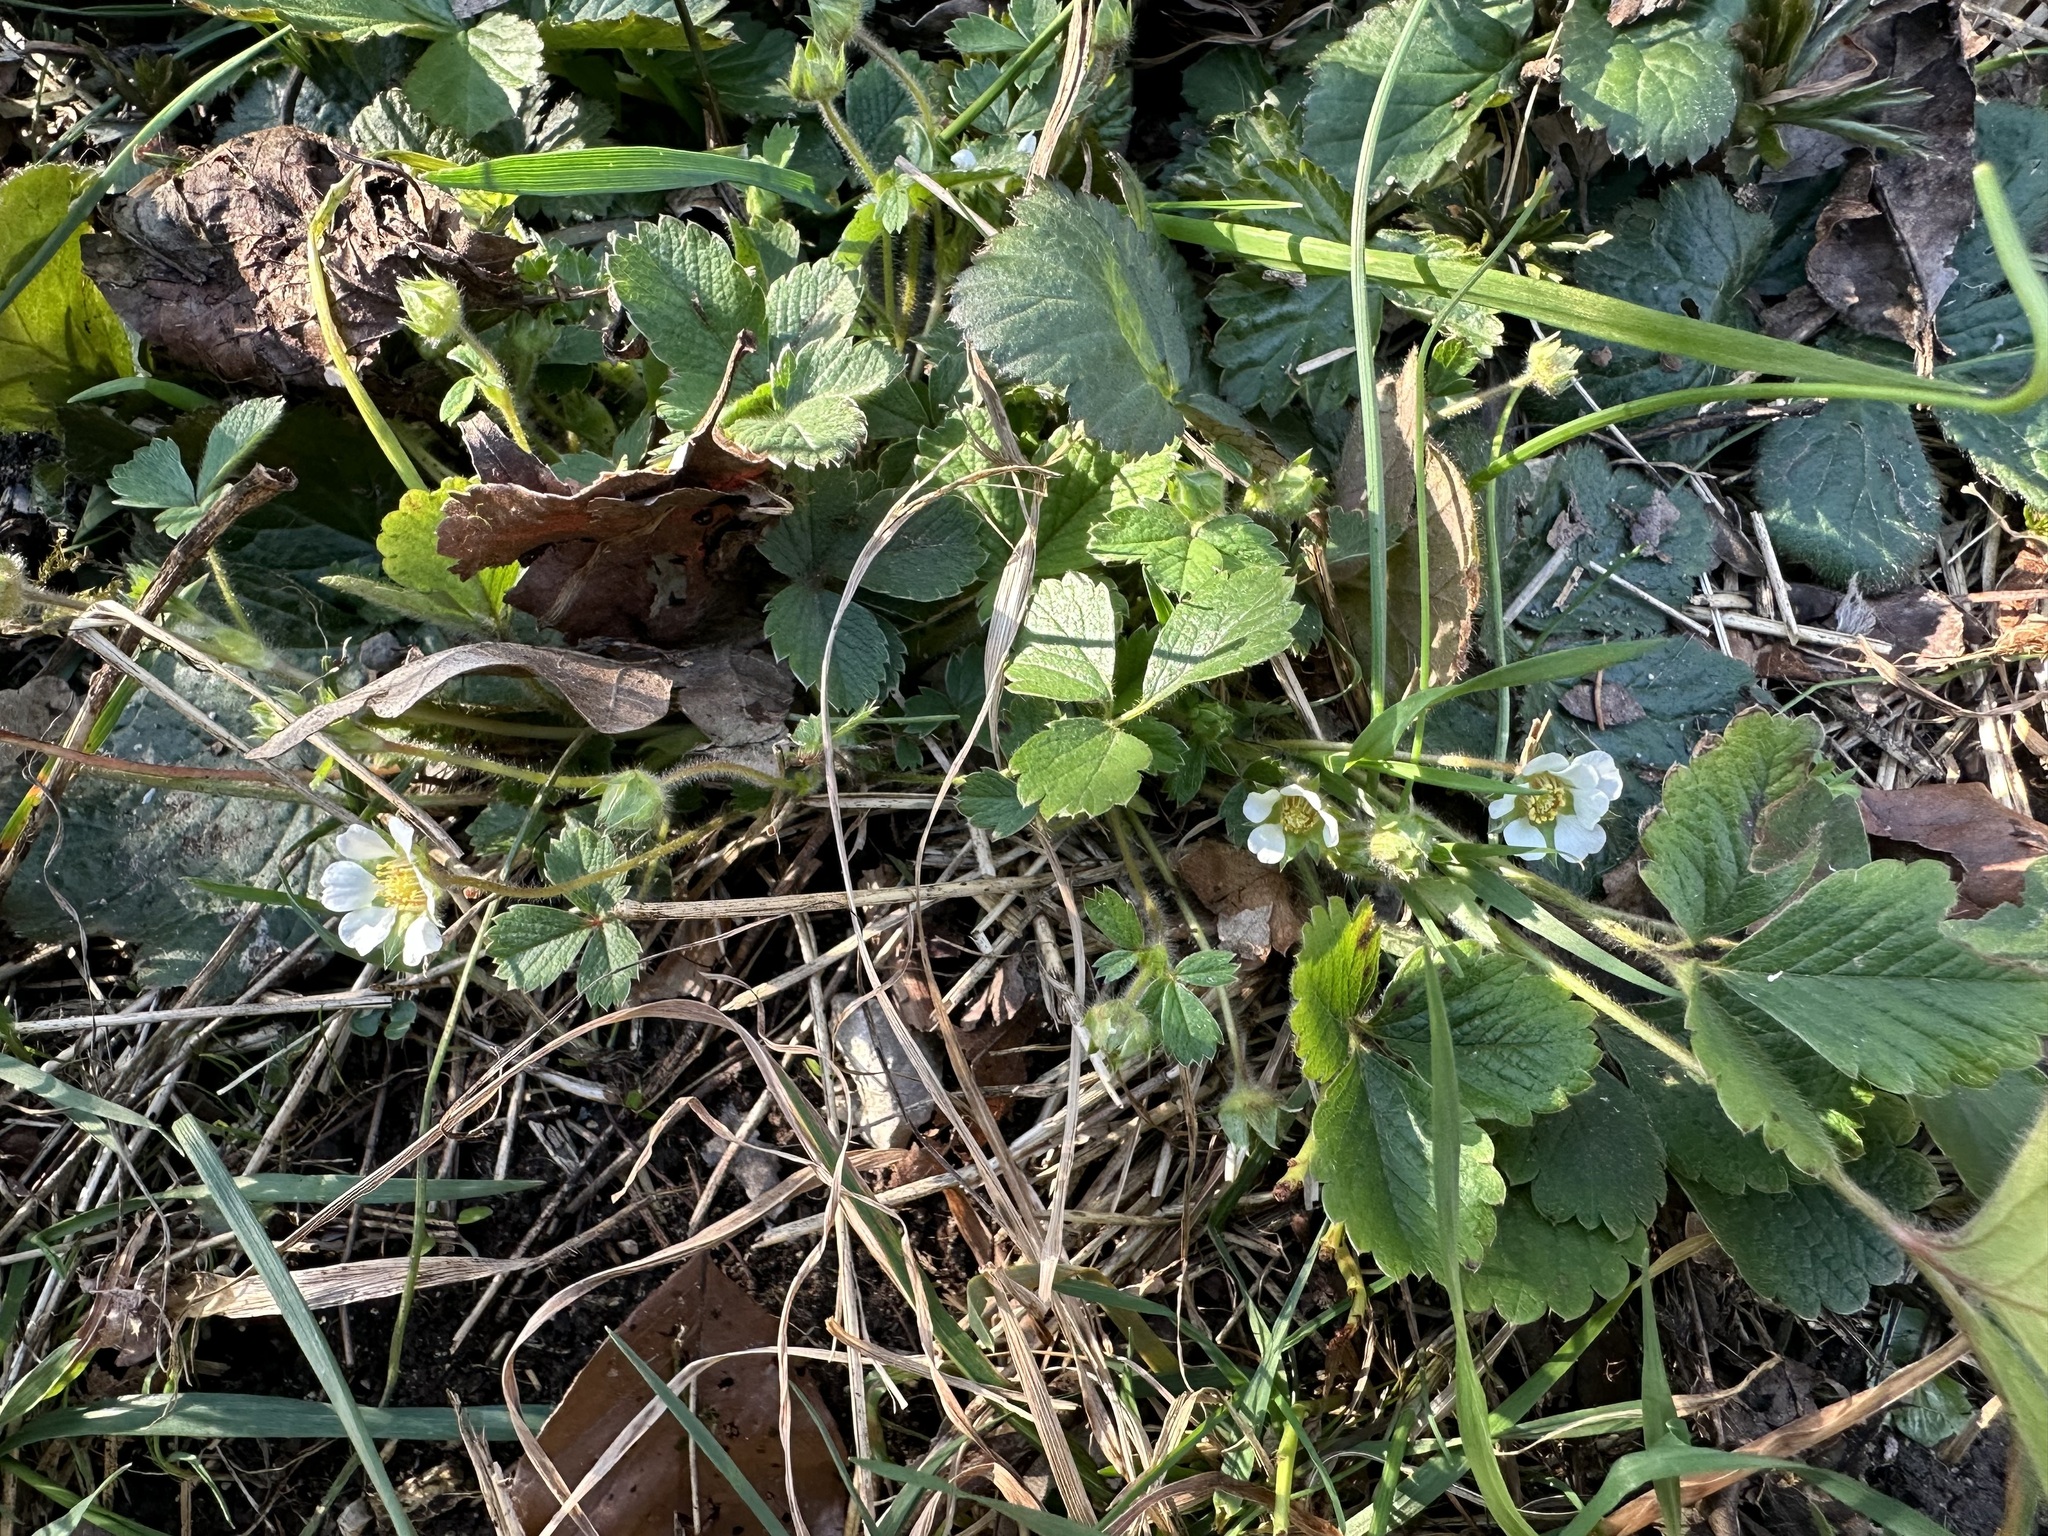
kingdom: Plantae
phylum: Tracheophyta
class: Magnoliopsida
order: Rosales
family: Rosaceae
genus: Potentilla
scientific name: Potentilla sterilis
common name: Barren strawberry
